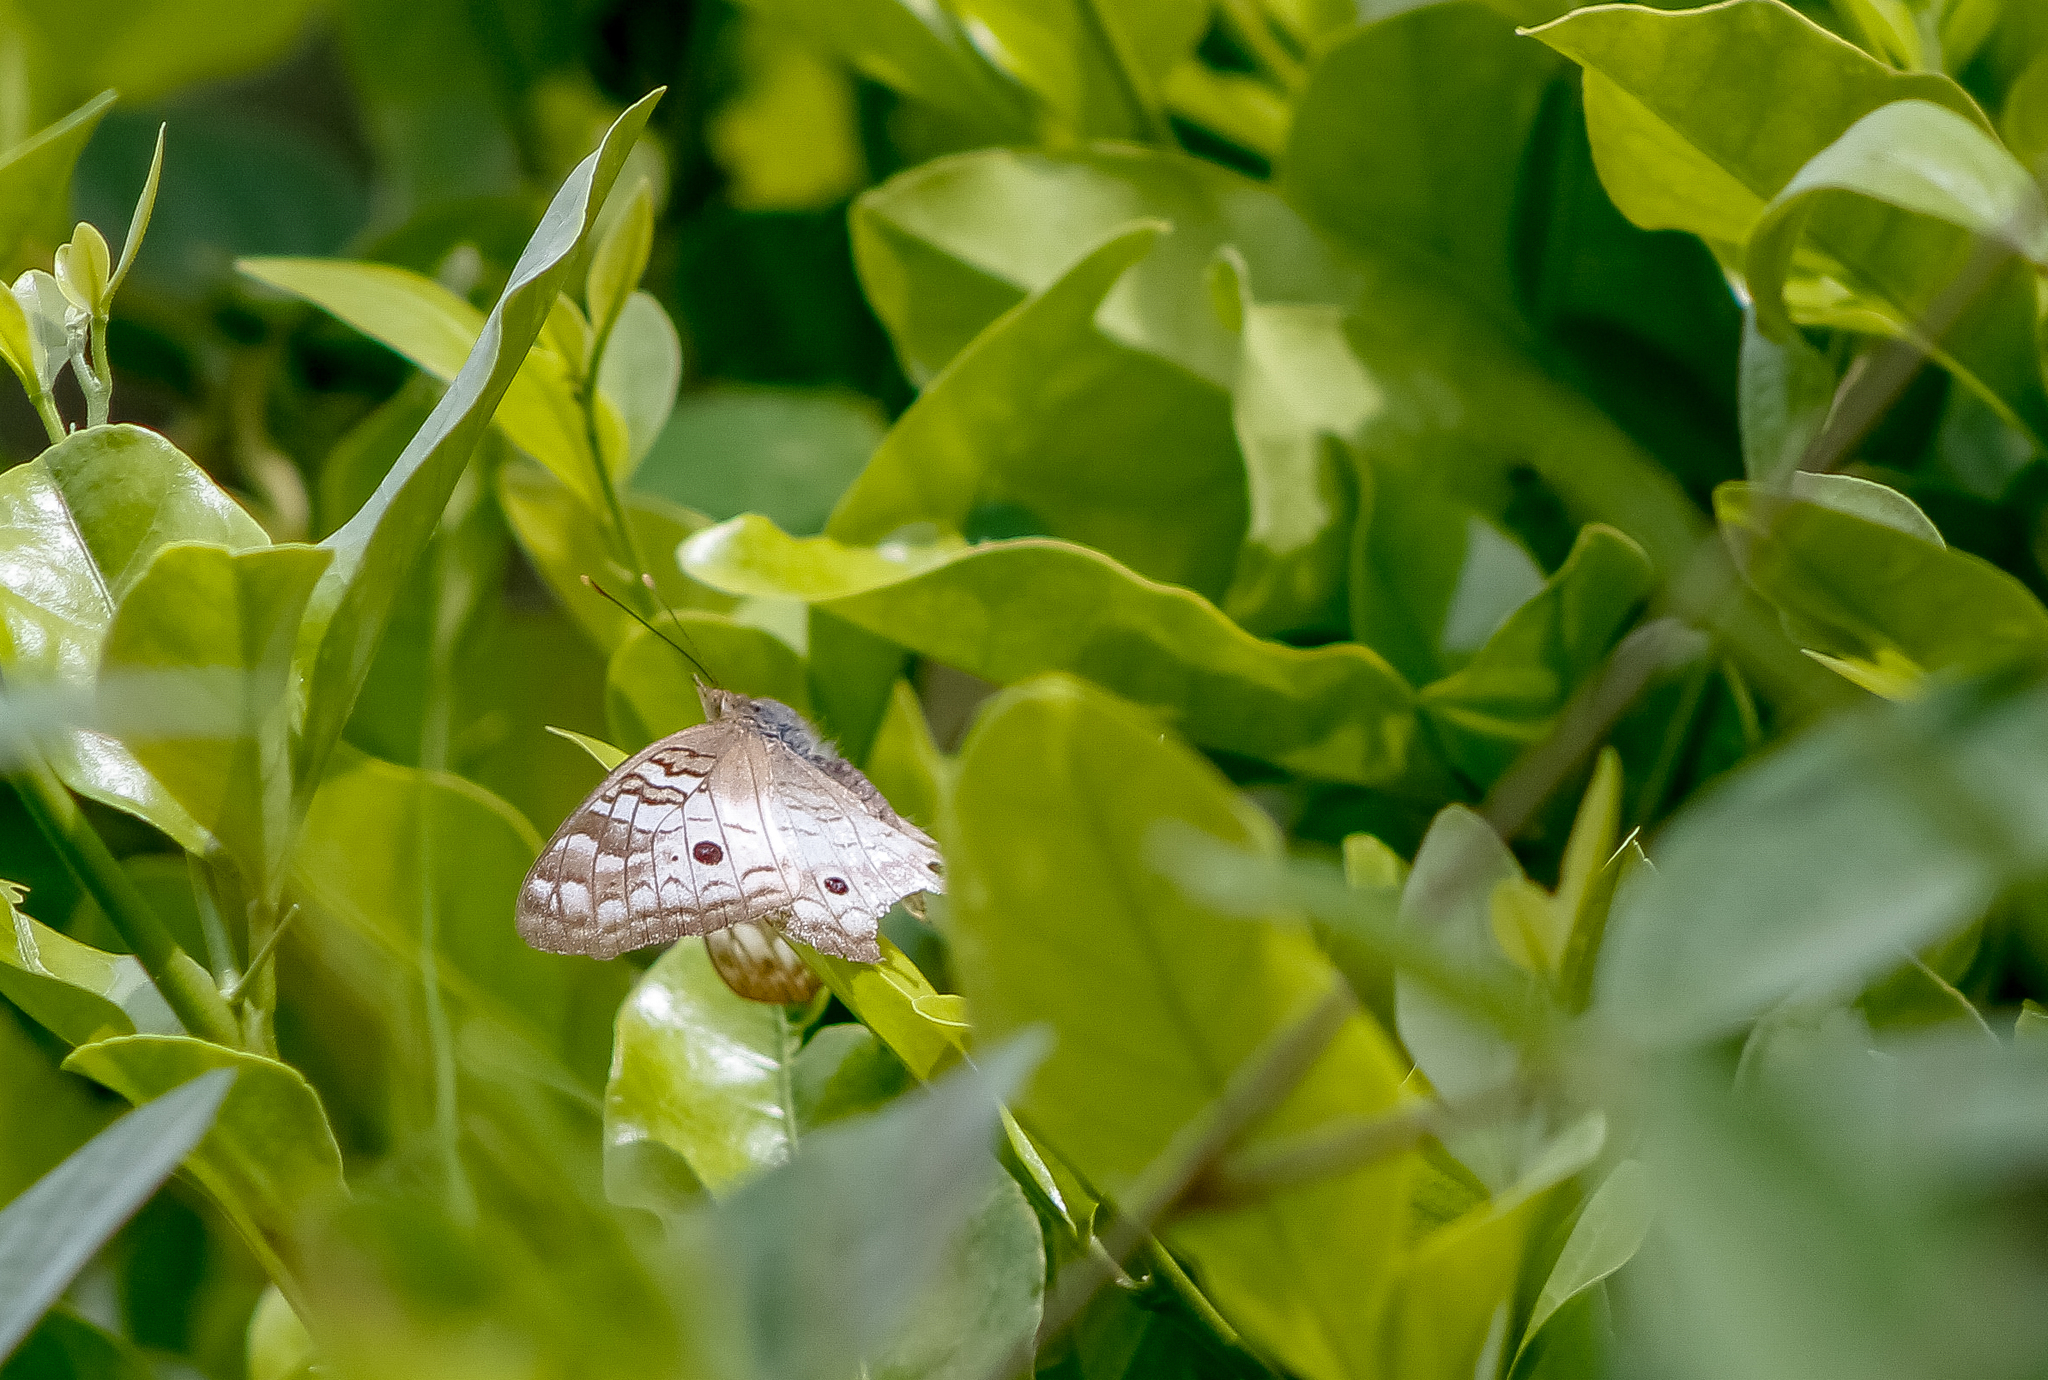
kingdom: Animalia
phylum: Arthropoda
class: Insecta
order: Lepidoptera
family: Nymphalidae
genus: Anartia
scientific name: Anartia jatrophae
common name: White peacock
